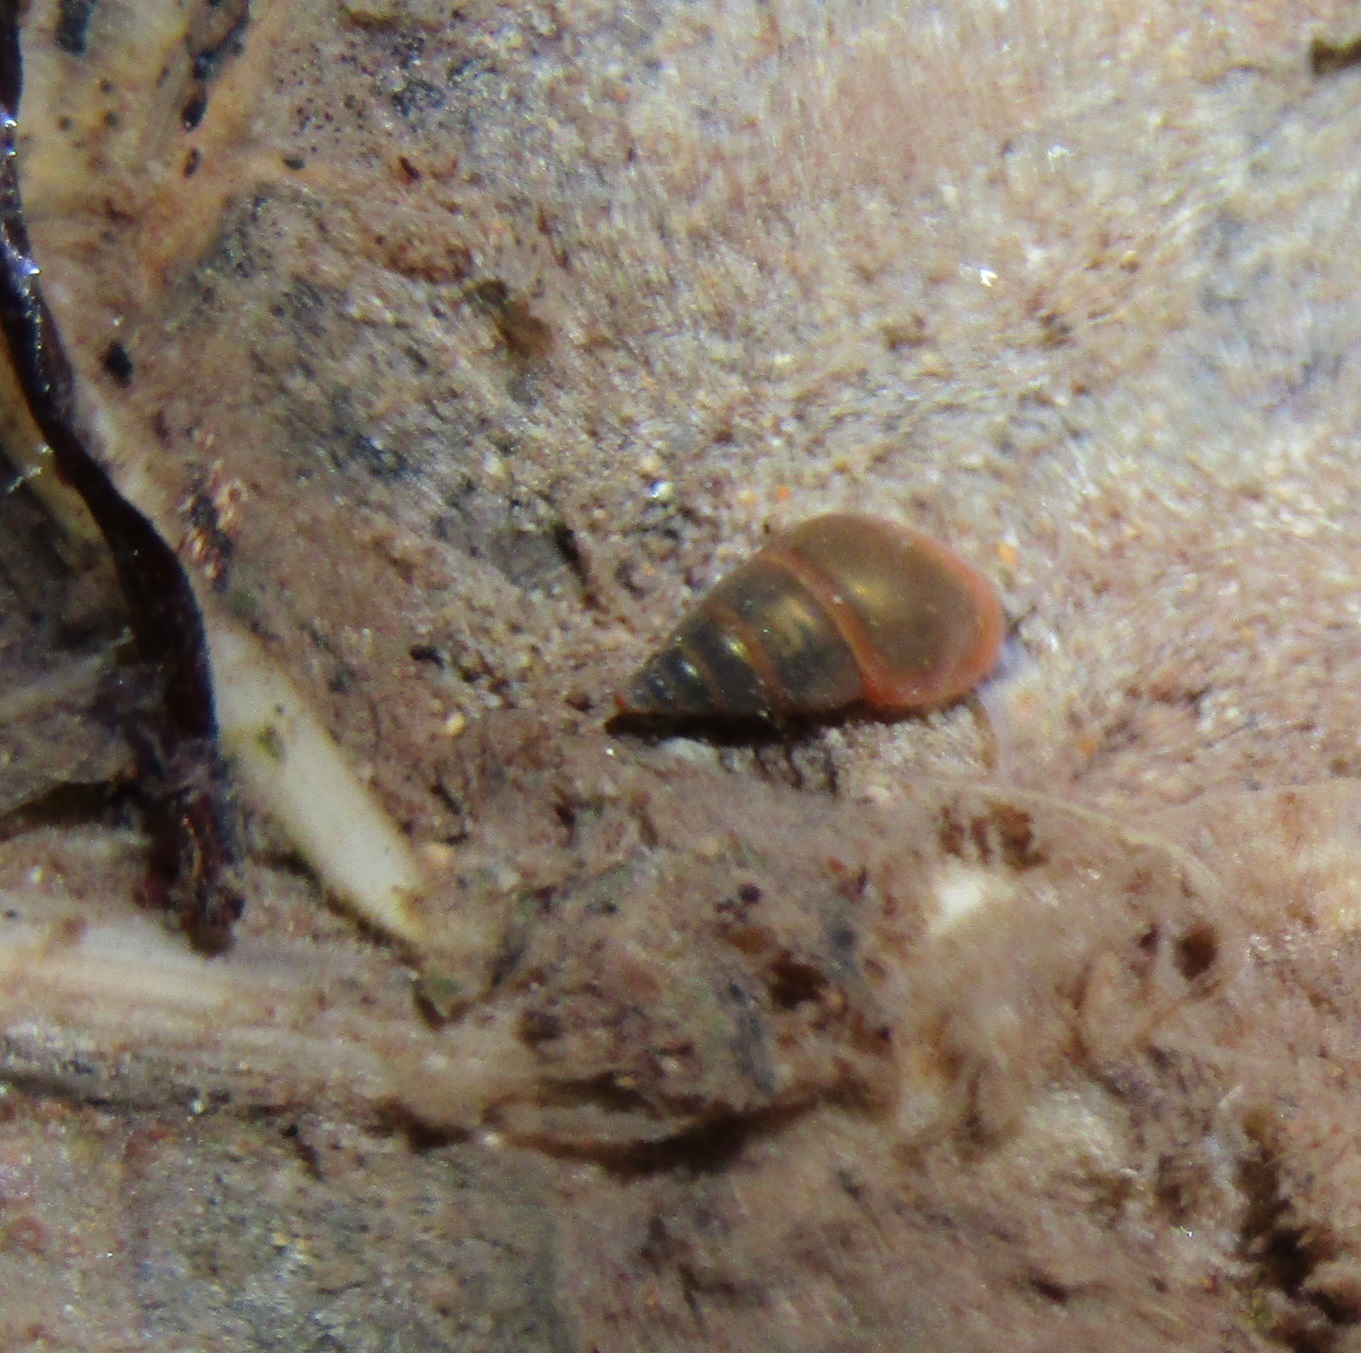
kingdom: Animalia
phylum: Mollusca
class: Gastropoda
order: Littorinimorpha
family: Tateidae
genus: Potamopyrgus
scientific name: Potamopyrgus antipodarum
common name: Jenkins' spire snail
